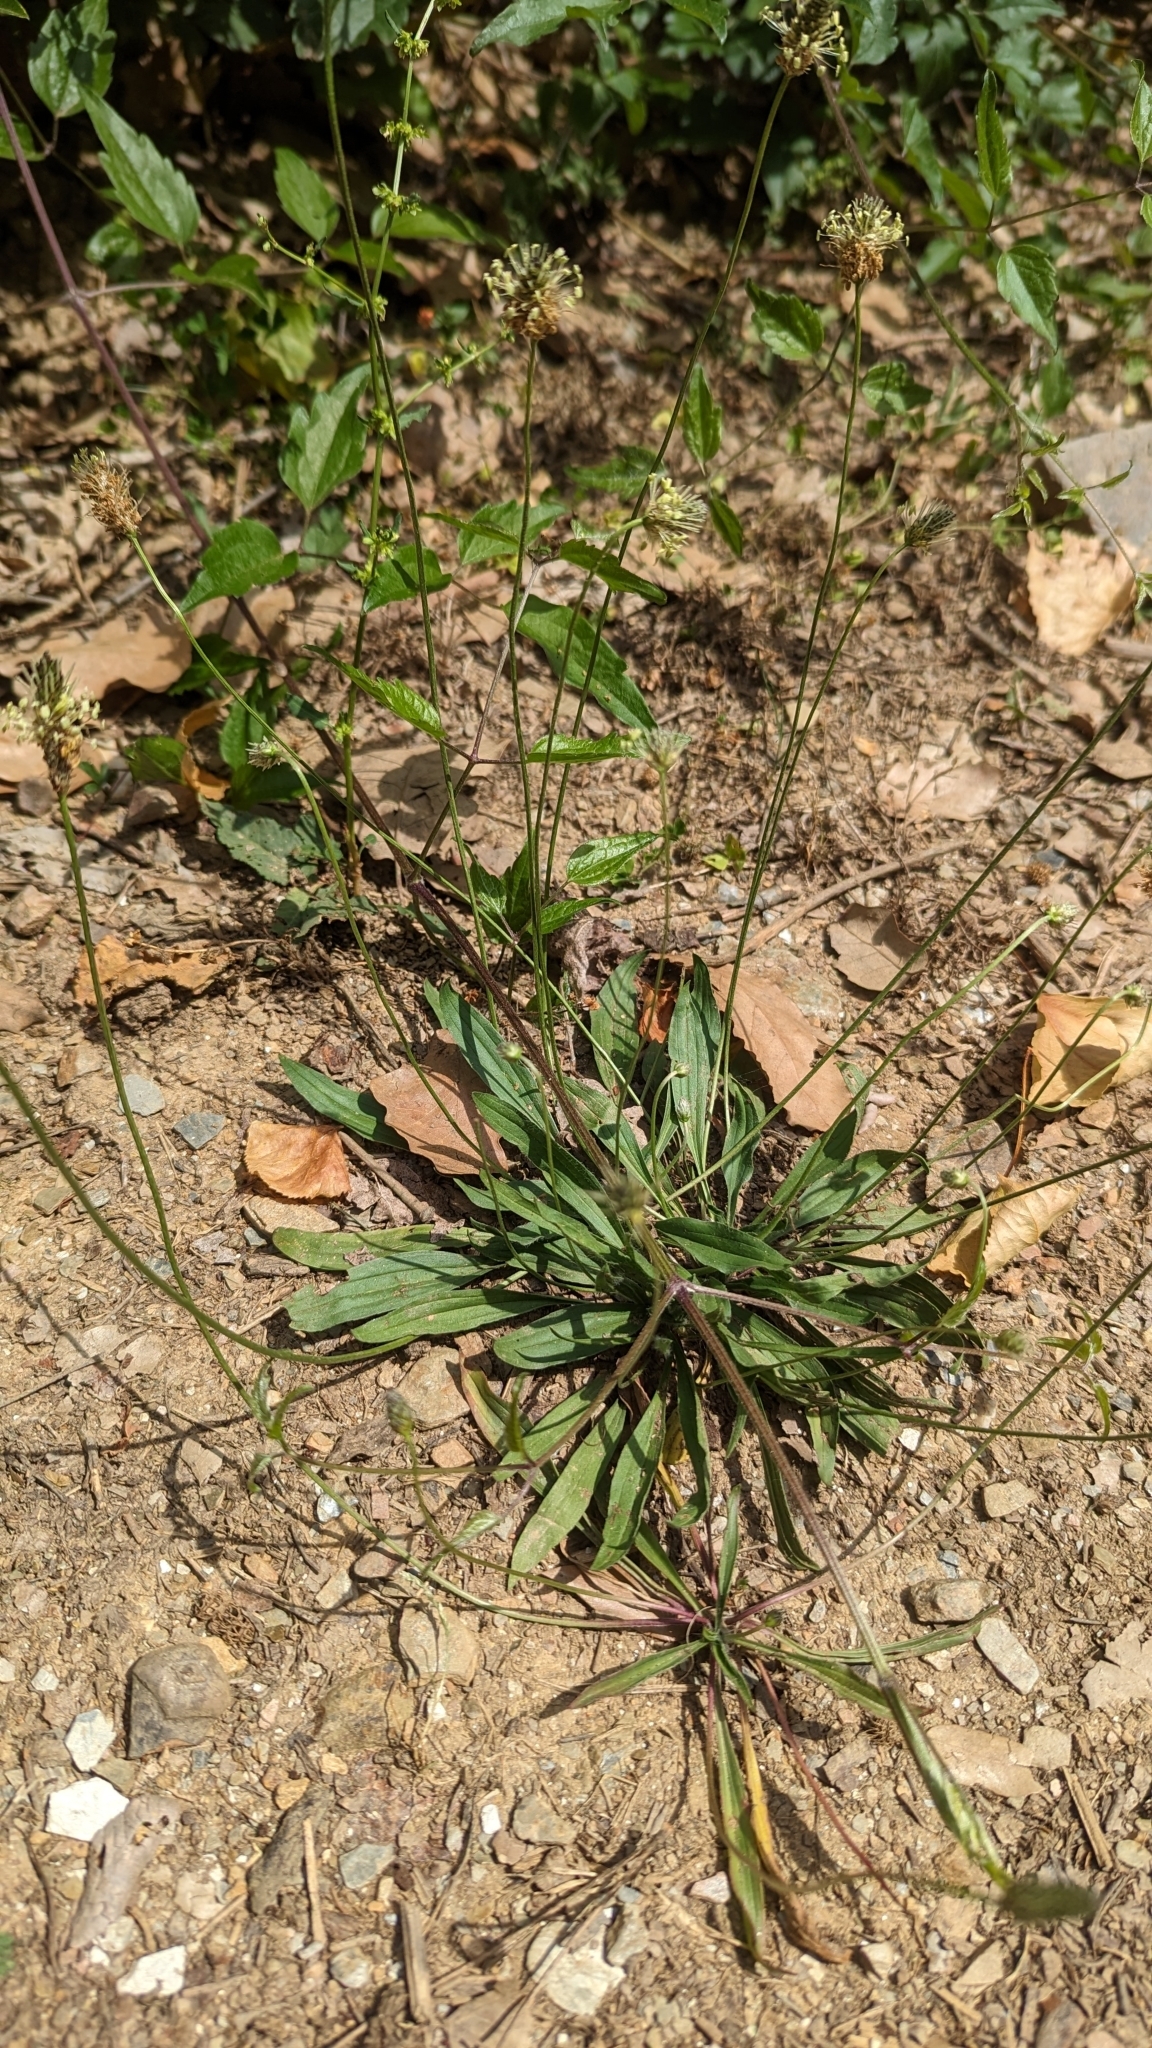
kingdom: Plantae
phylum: Tracheophyta
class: Magnoliopsida
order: Lamiales
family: Plantaginaceae
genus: Plantago
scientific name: Plantago lanceolata
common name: Ribwort plantain
